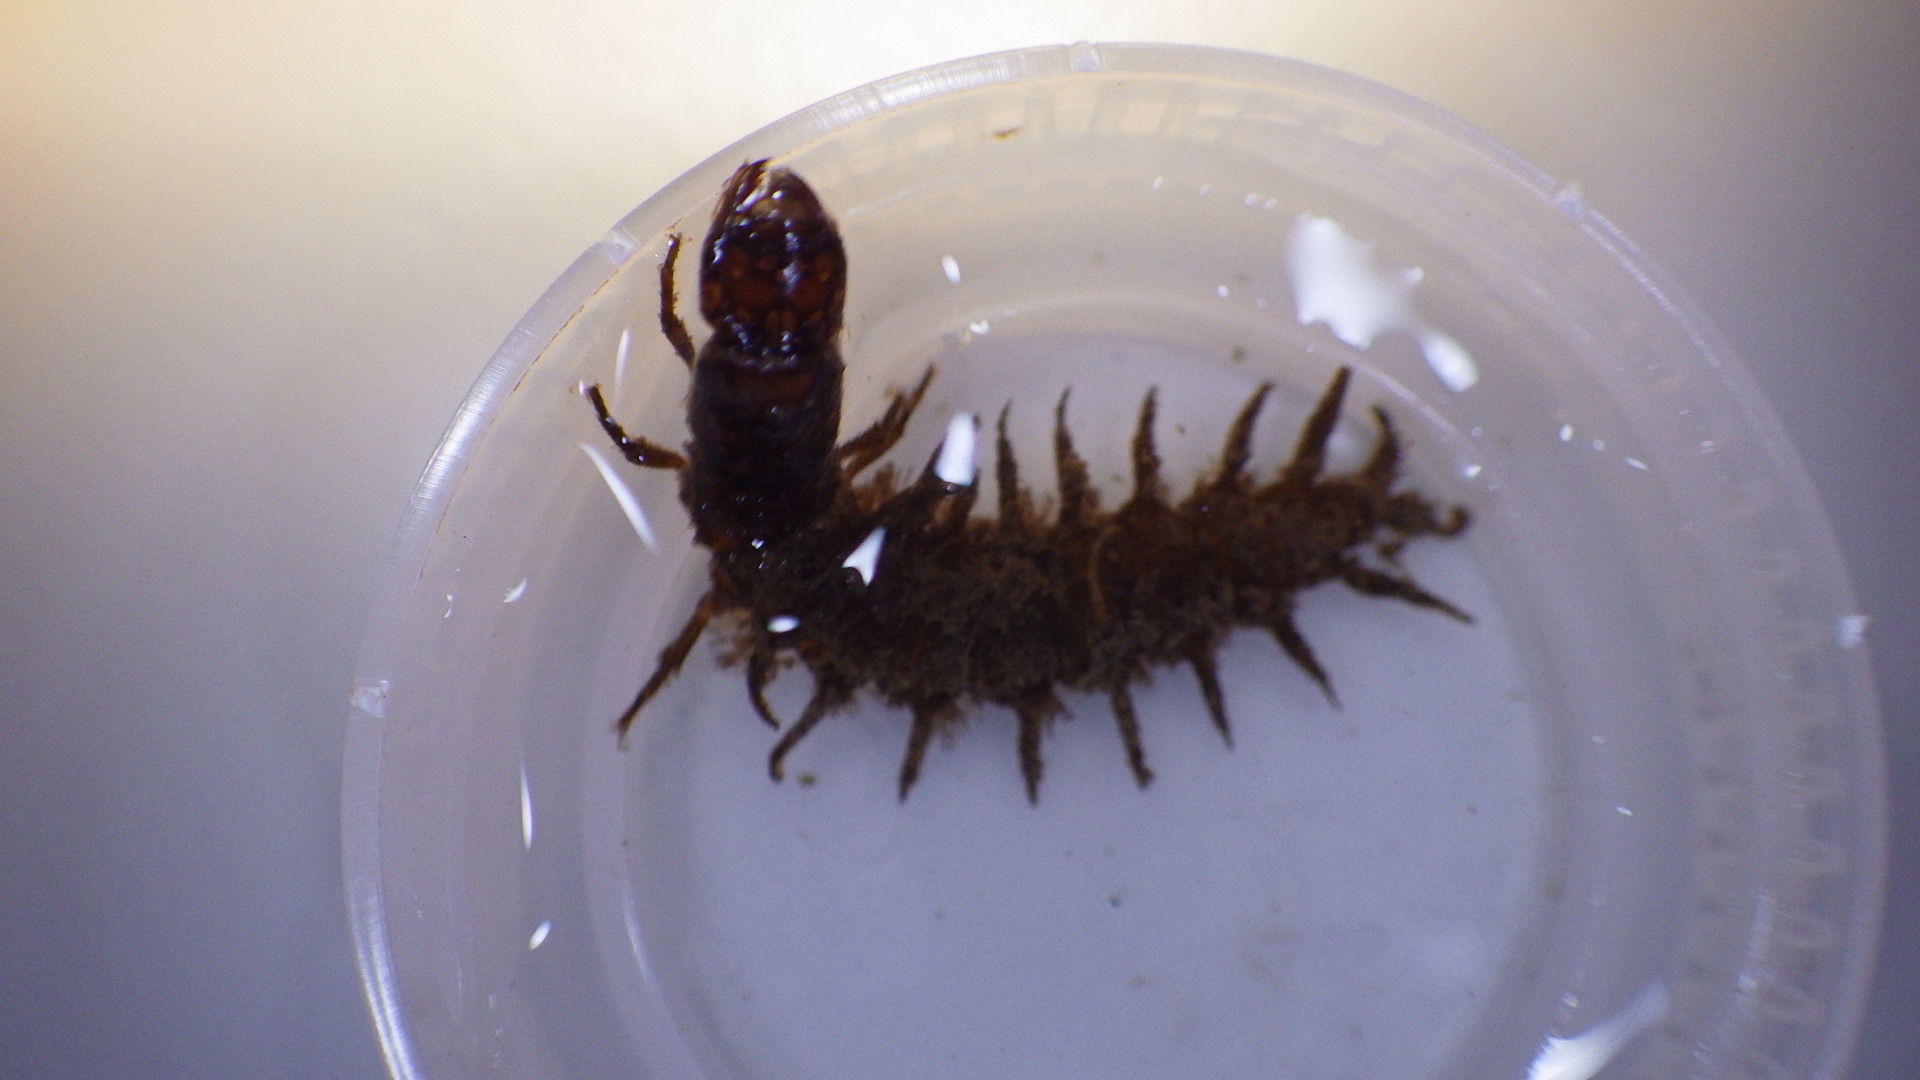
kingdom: Animalia
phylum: Arthropoda
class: Insecta
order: Megaloptera
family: Corydalidae
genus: Corydalus
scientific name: Corydalus cornutus
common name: Dobsonfly
